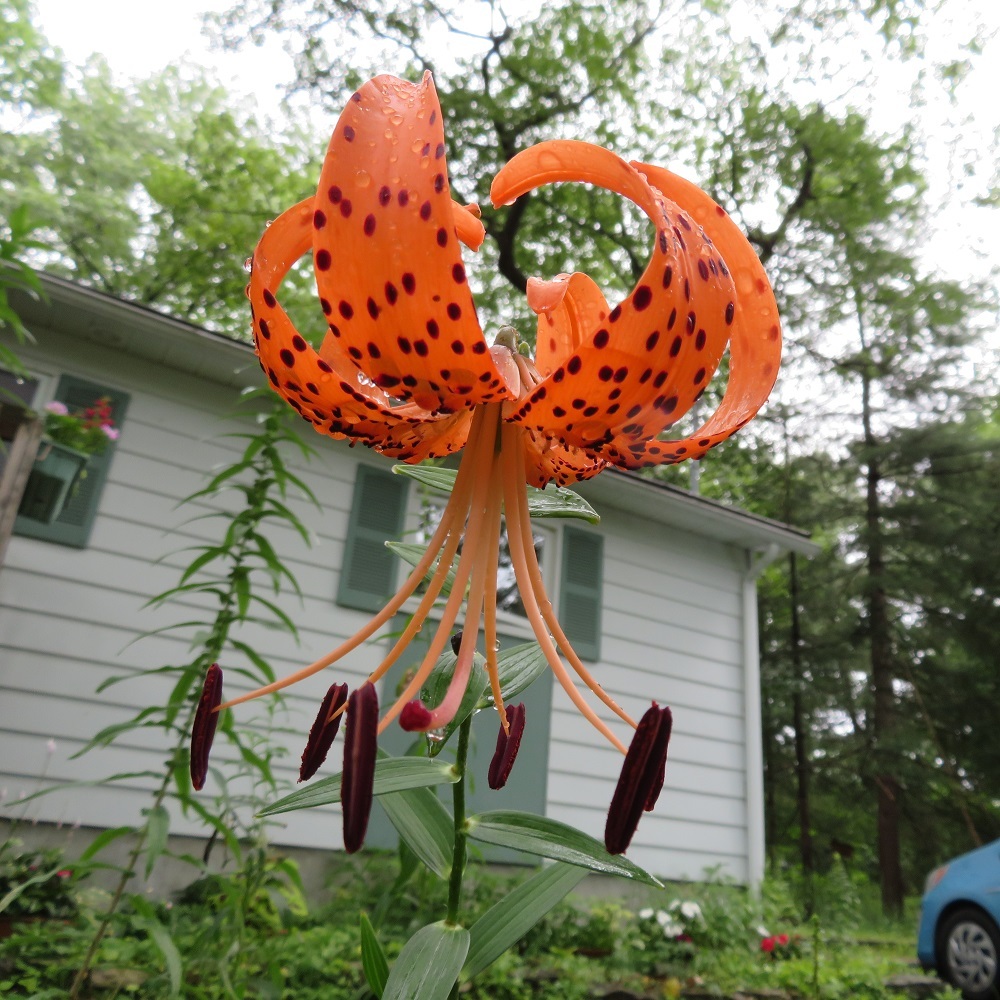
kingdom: Plantae
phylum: Tracheophyta
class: Liliopsida
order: Liliales
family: Liliaceae
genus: Lilium
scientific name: Lilium lancifolium
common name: Tiger lily
